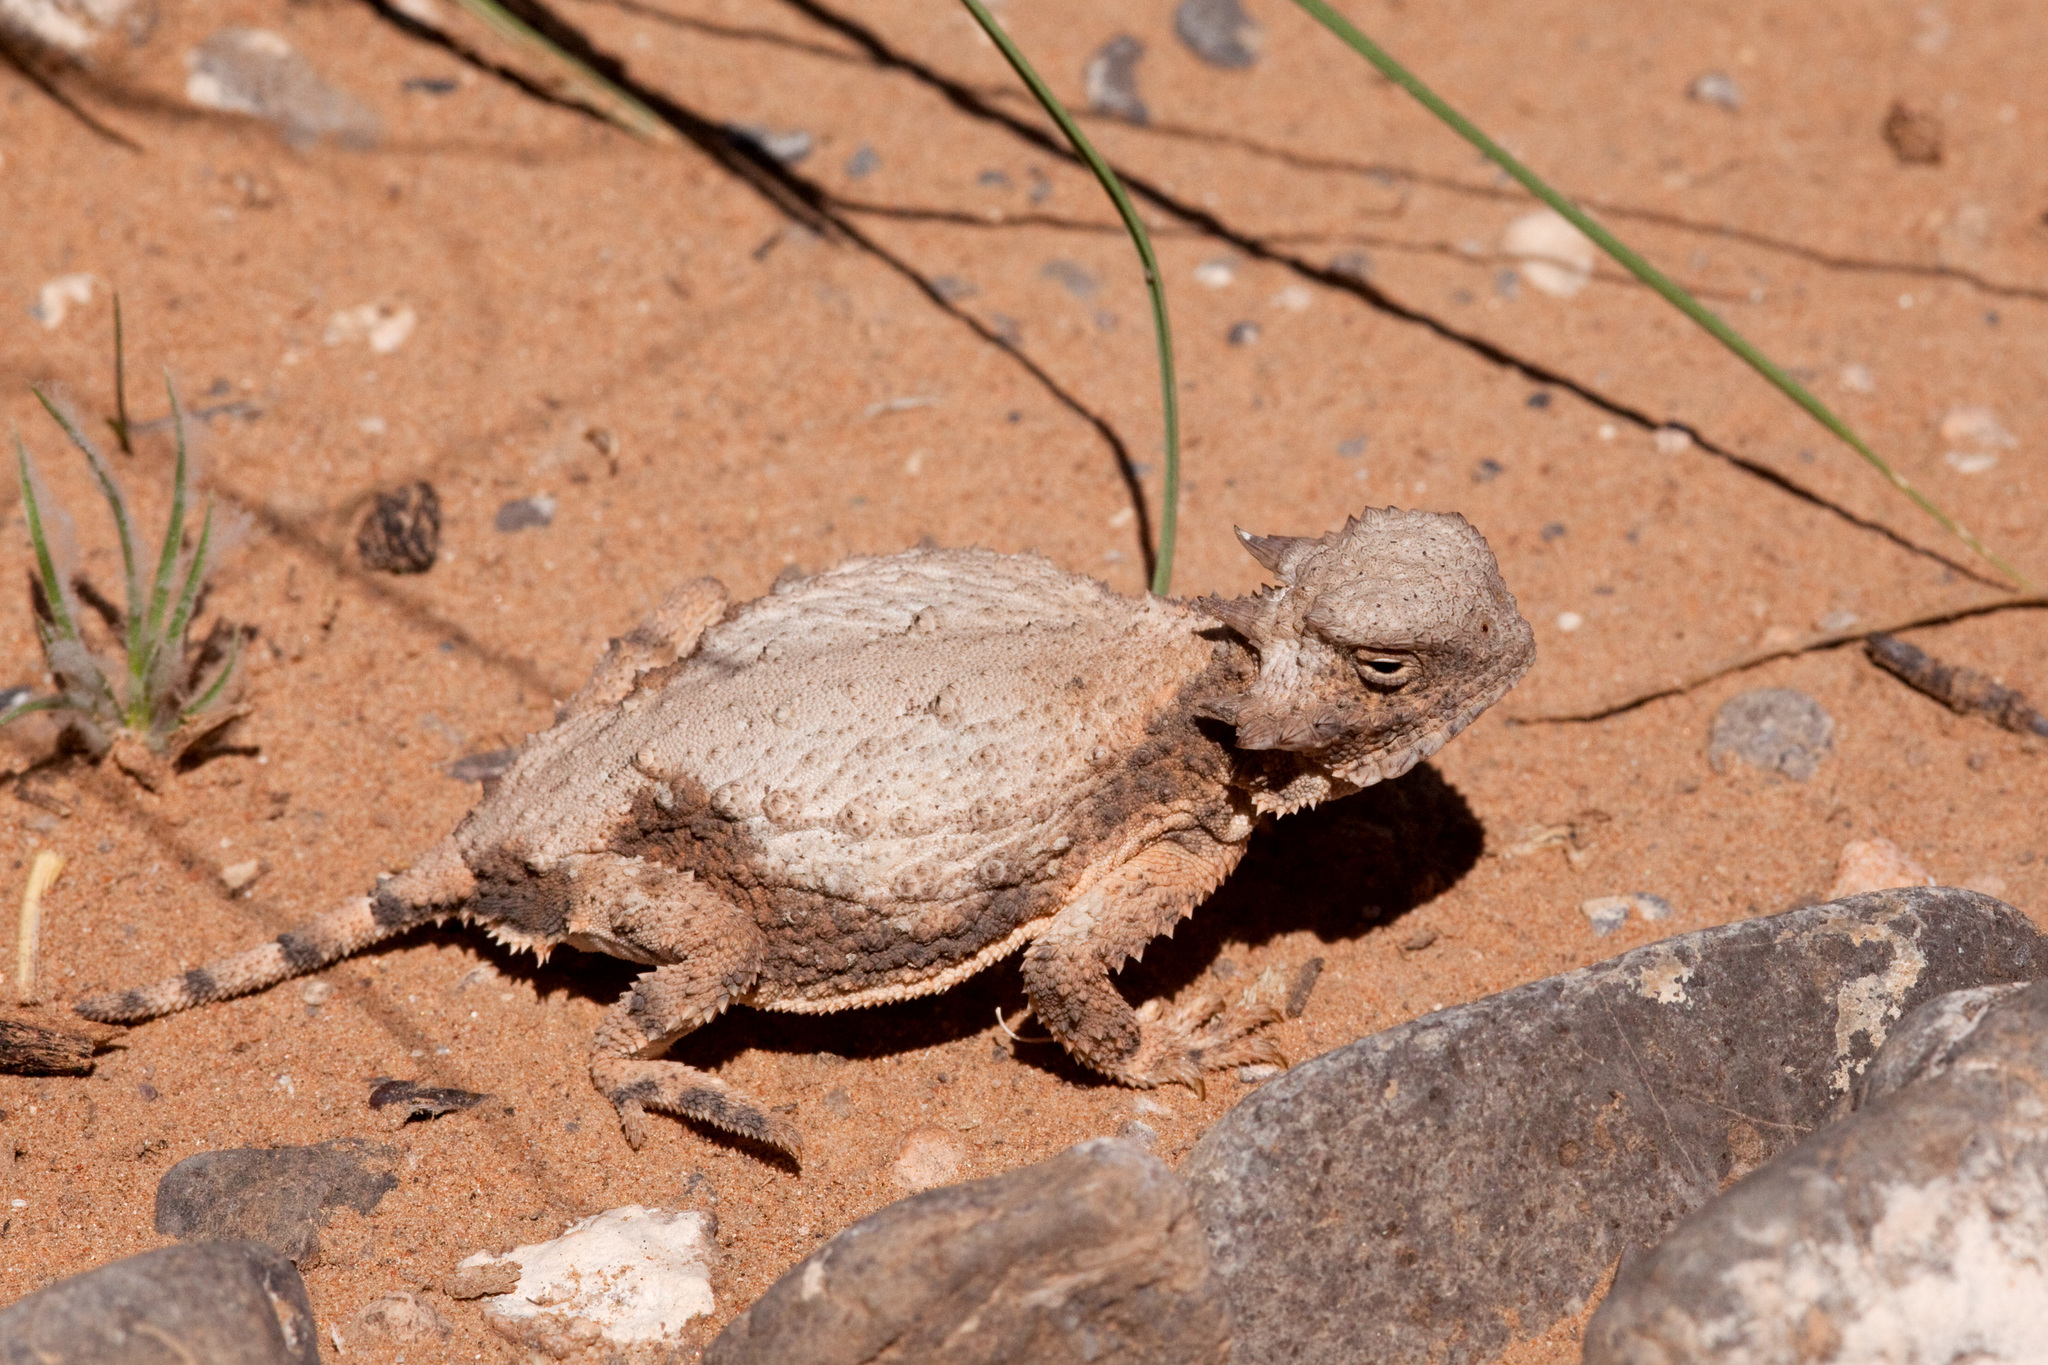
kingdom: Animalia
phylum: Chordata
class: Squamata
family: Phrynosomatidae
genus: Phrynosoma
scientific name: Phrynosoma modestum
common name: Roundtail horned lizard
